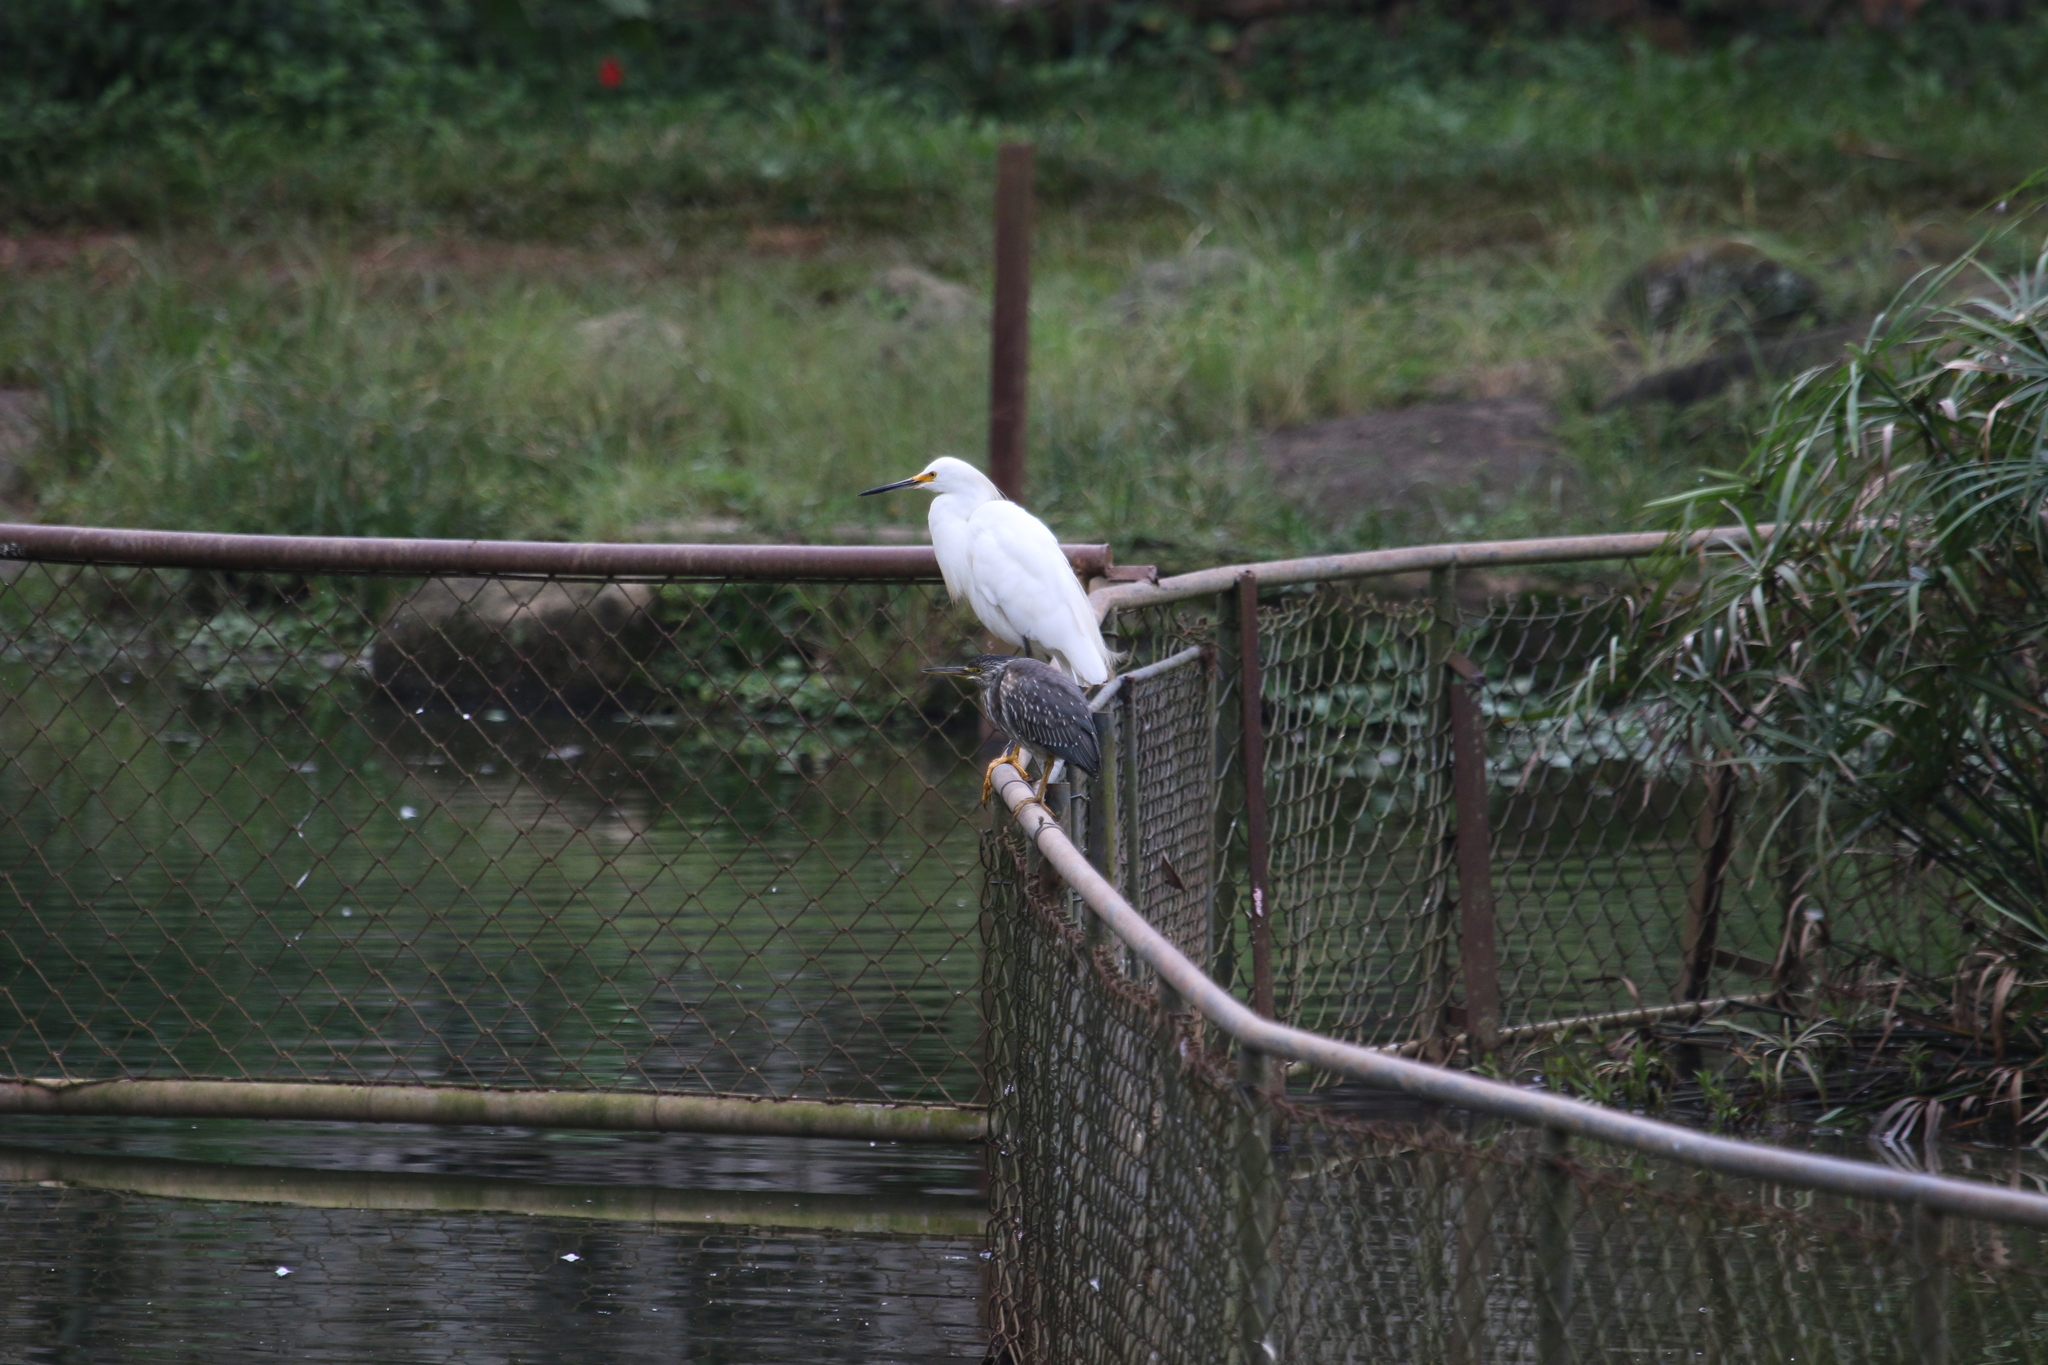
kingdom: Animalia
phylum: Chordata
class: Aves
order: Pelecaniformes
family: Ardeidae
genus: Butorides
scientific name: Butorides striata
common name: Striated heron
